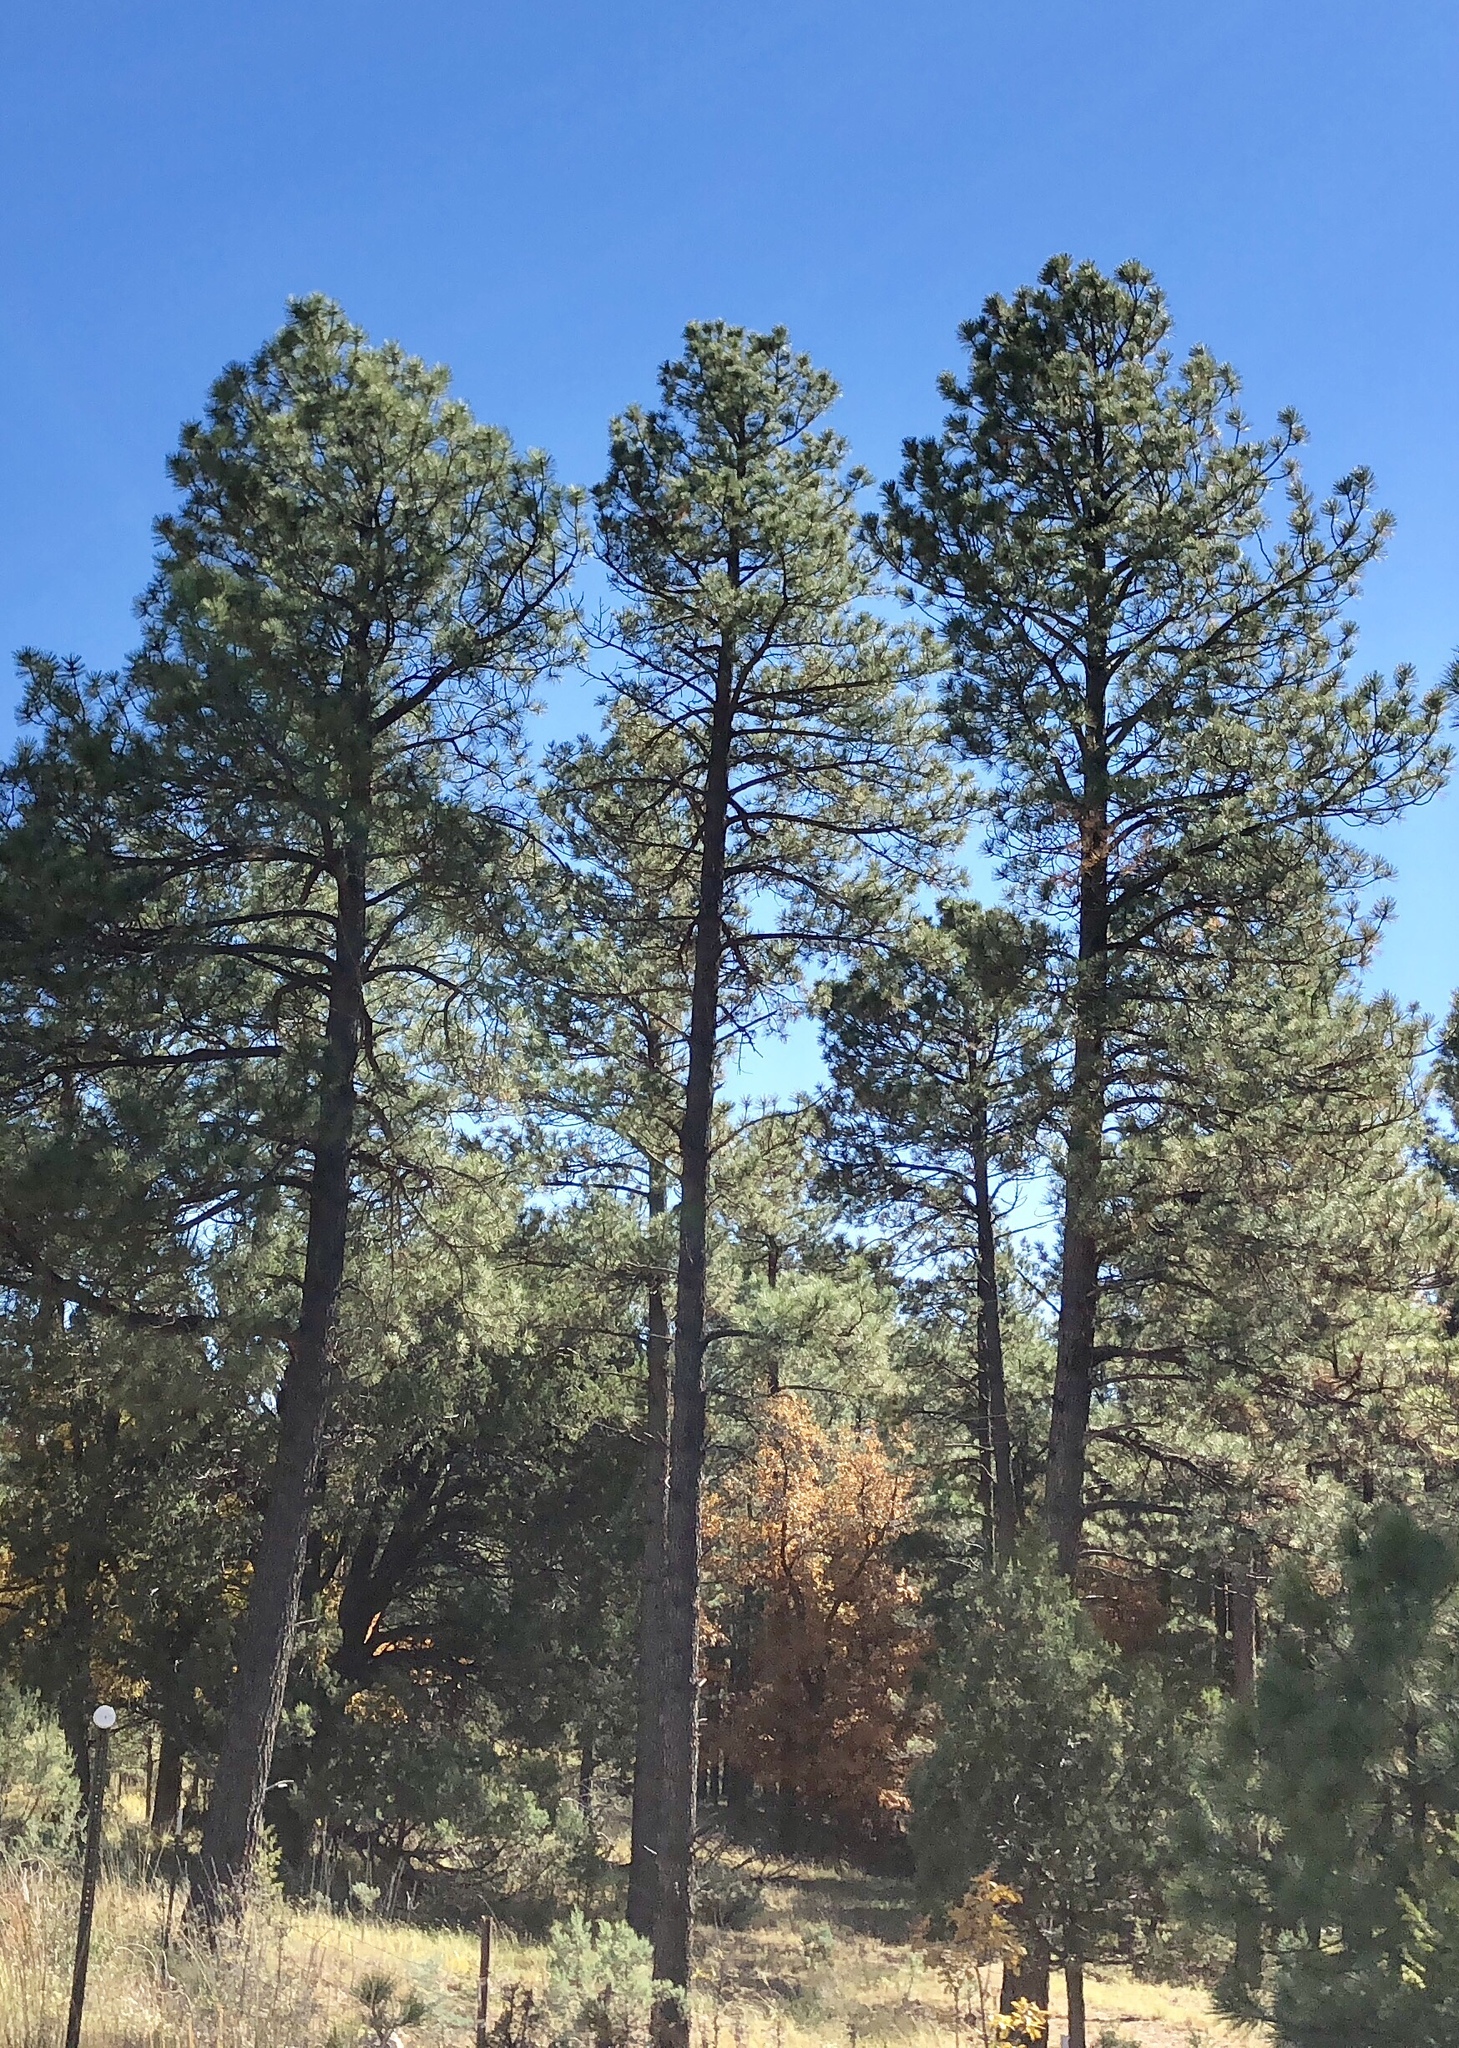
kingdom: Plantae
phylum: Tracheophyta
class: Pinopsida
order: Pinales
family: Pinaceae
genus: Pinus
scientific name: Pinus ponderosa
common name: Western yellow-pine
